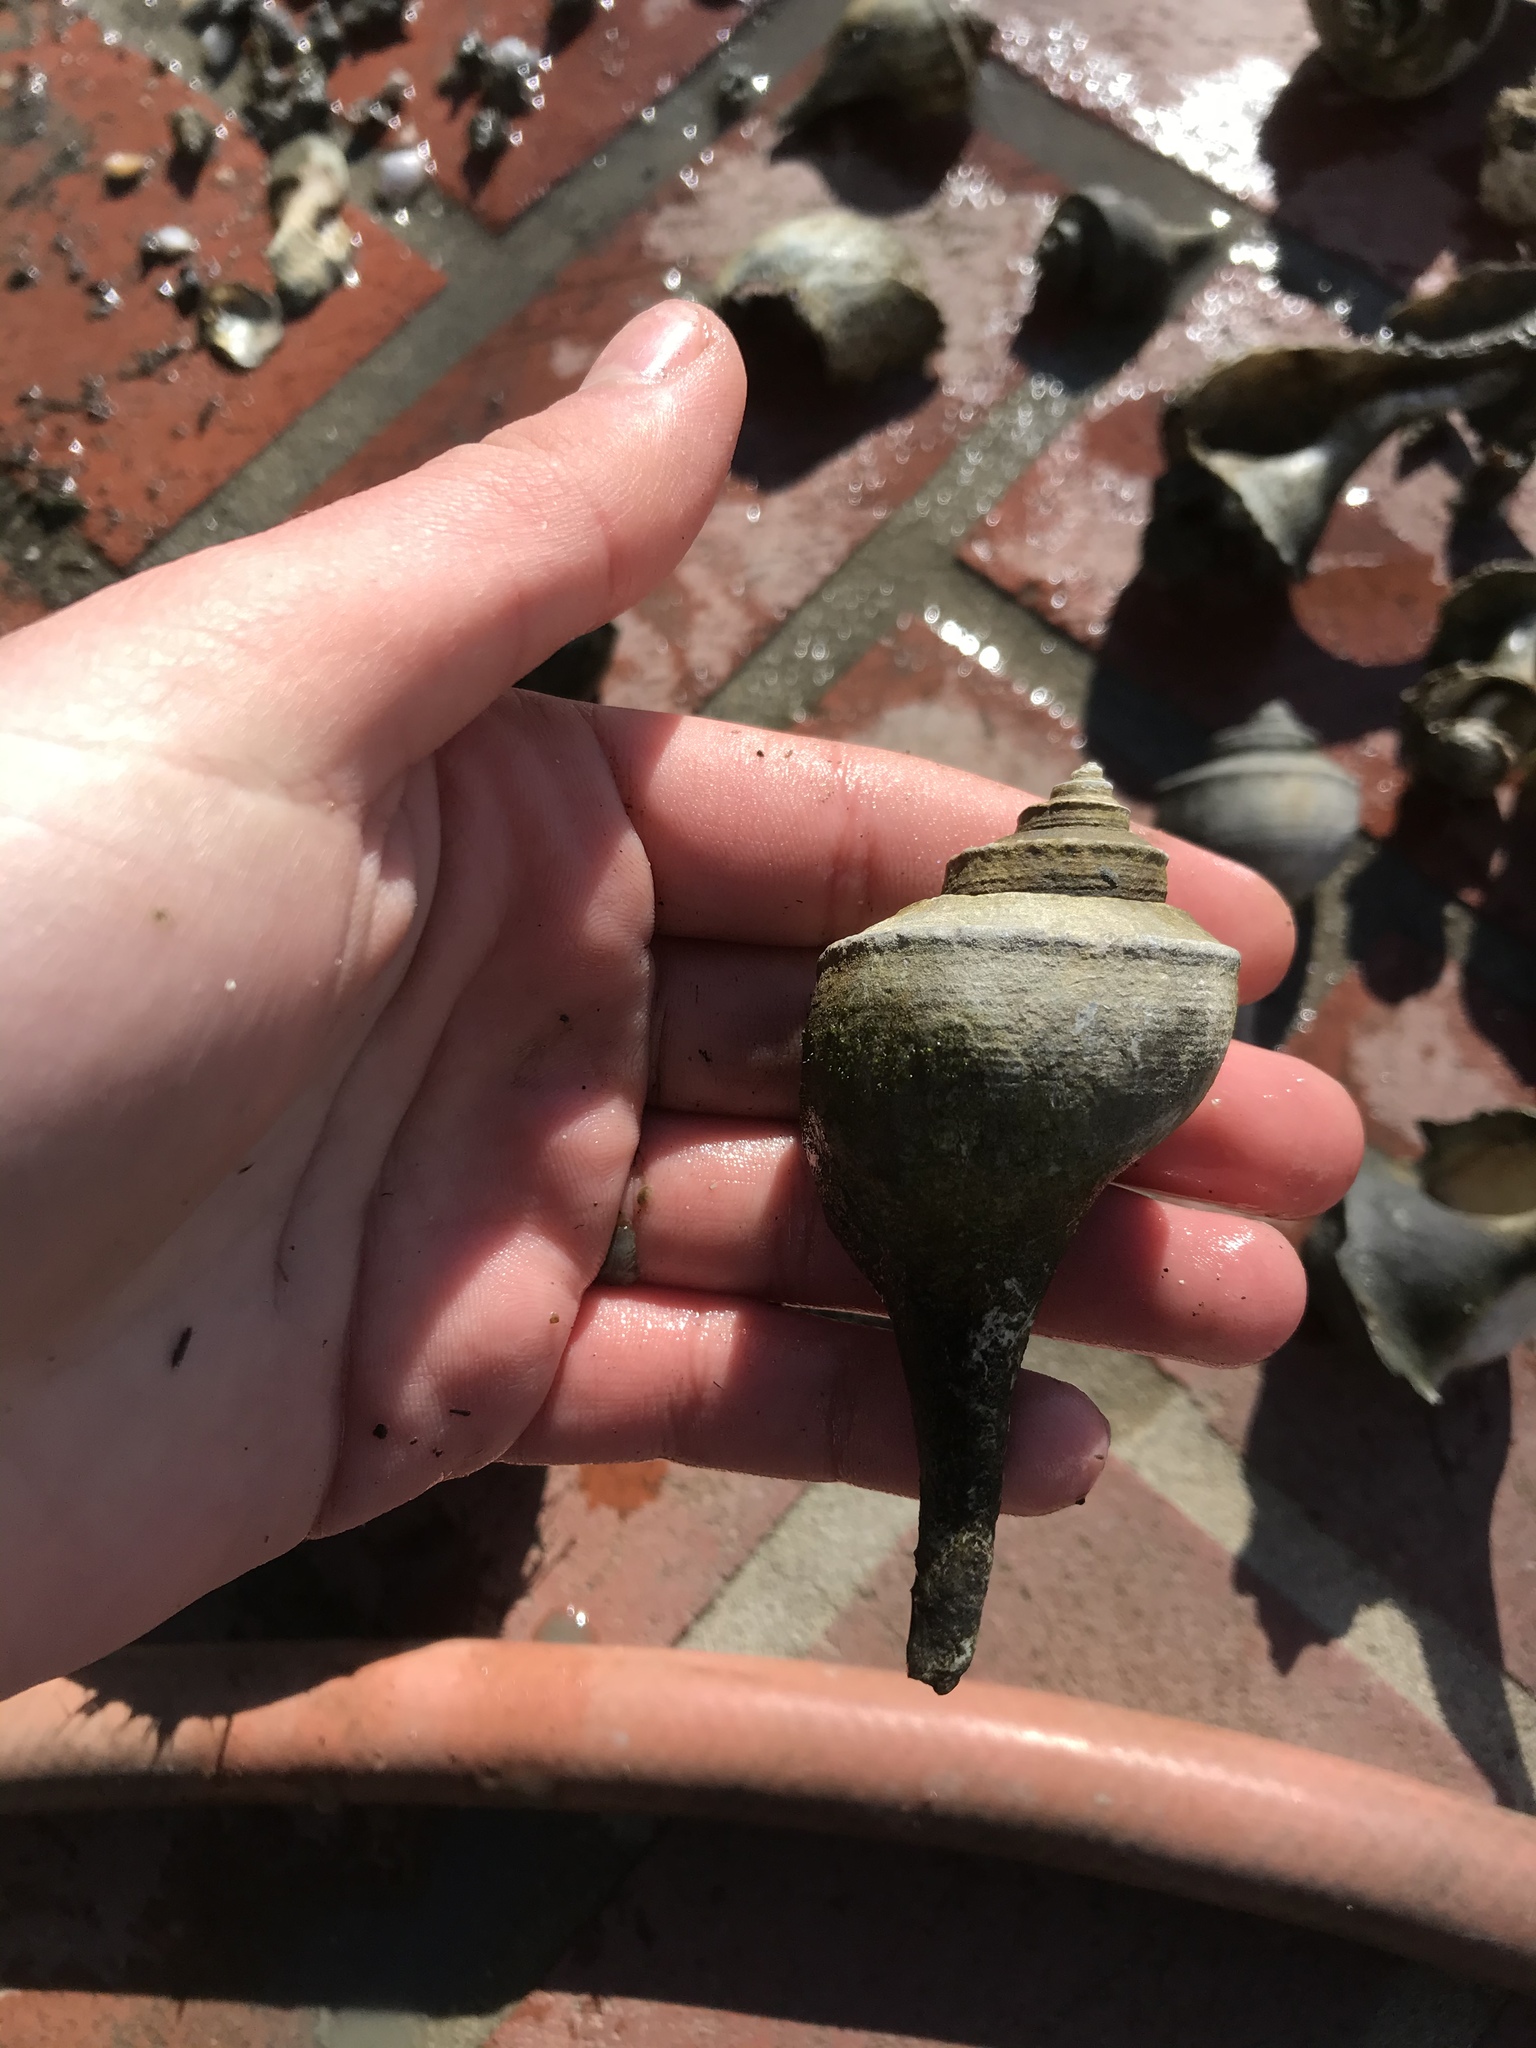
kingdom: Animalia
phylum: Mollusca
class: Gastropoda
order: Neogastropoda
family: Busyconidae
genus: Busycotypus
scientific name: Busycotypus canaliculatus
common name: Channeled whelk
